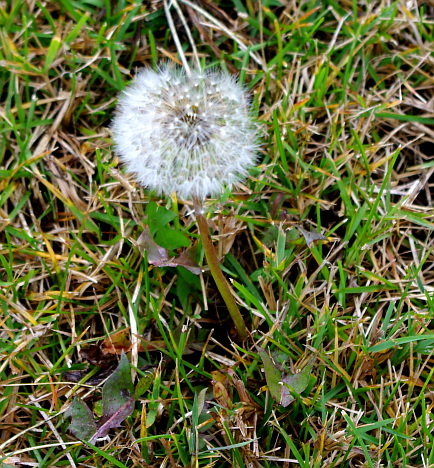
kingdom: Plantae
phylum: Tracheophyta
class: Magnoliopsida
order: Asterales
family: Asteraceae
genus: Taraxacum
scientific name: Taraxacum officinale
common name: Common dandelion
